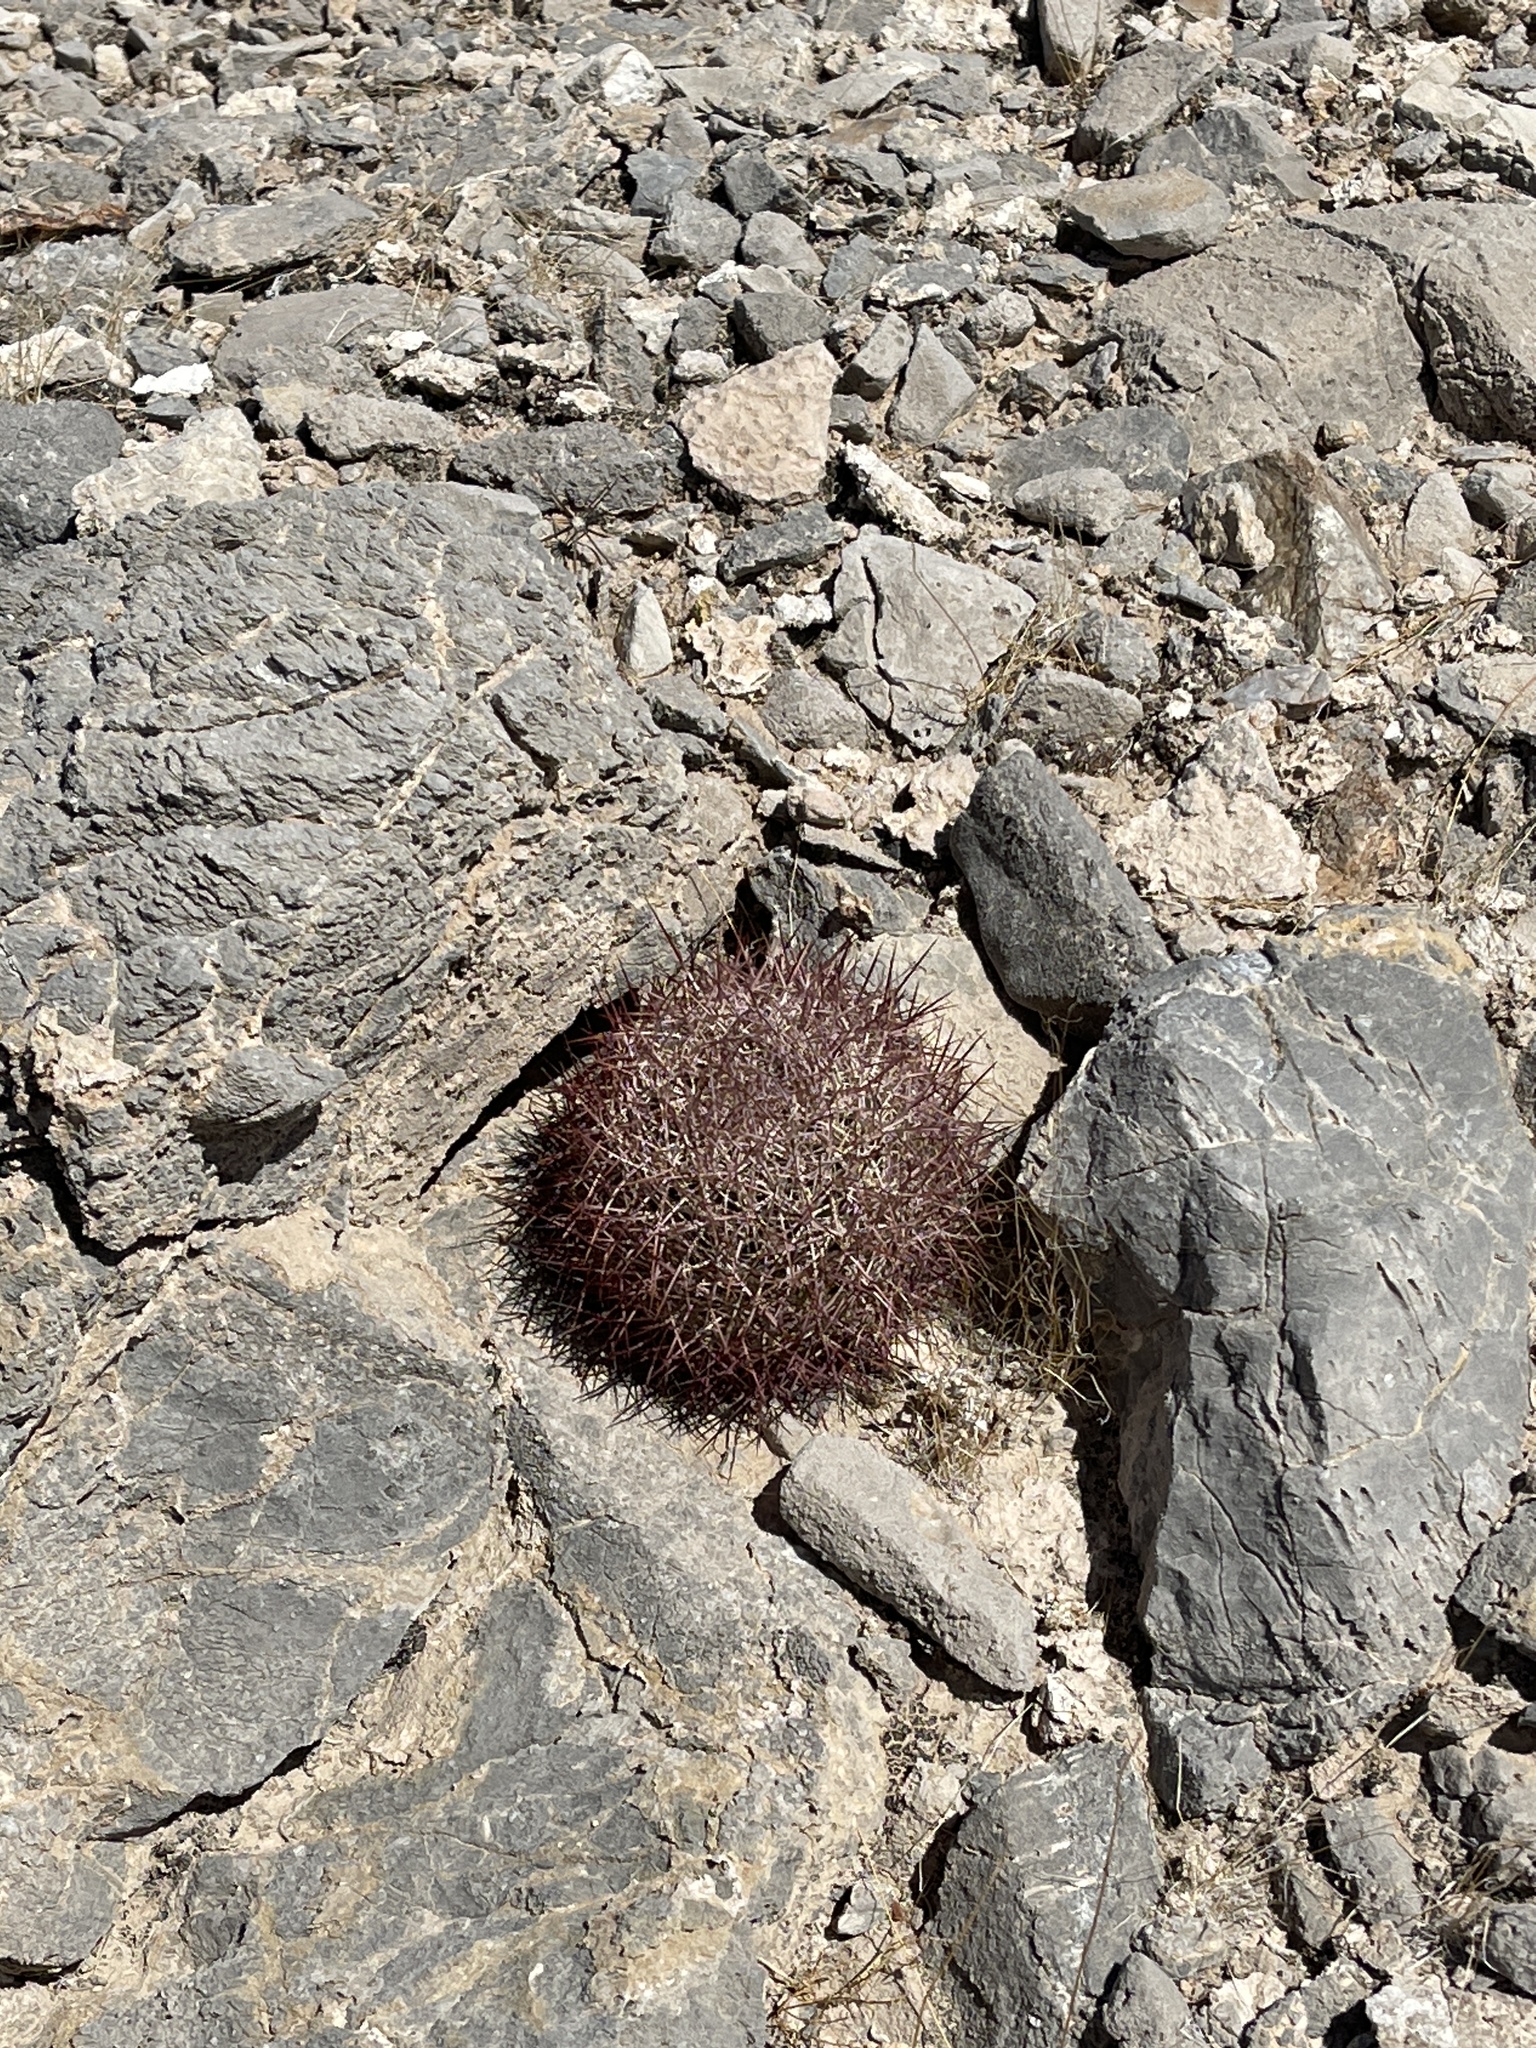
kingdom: Plantae
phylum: Tracheophyta
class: Magnoliopsida
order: Caryophyllales
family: Cactaceae
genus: Sclerocactus
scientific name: Sclerocactus johnsonii
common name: Eight-spine fishhook cactus
